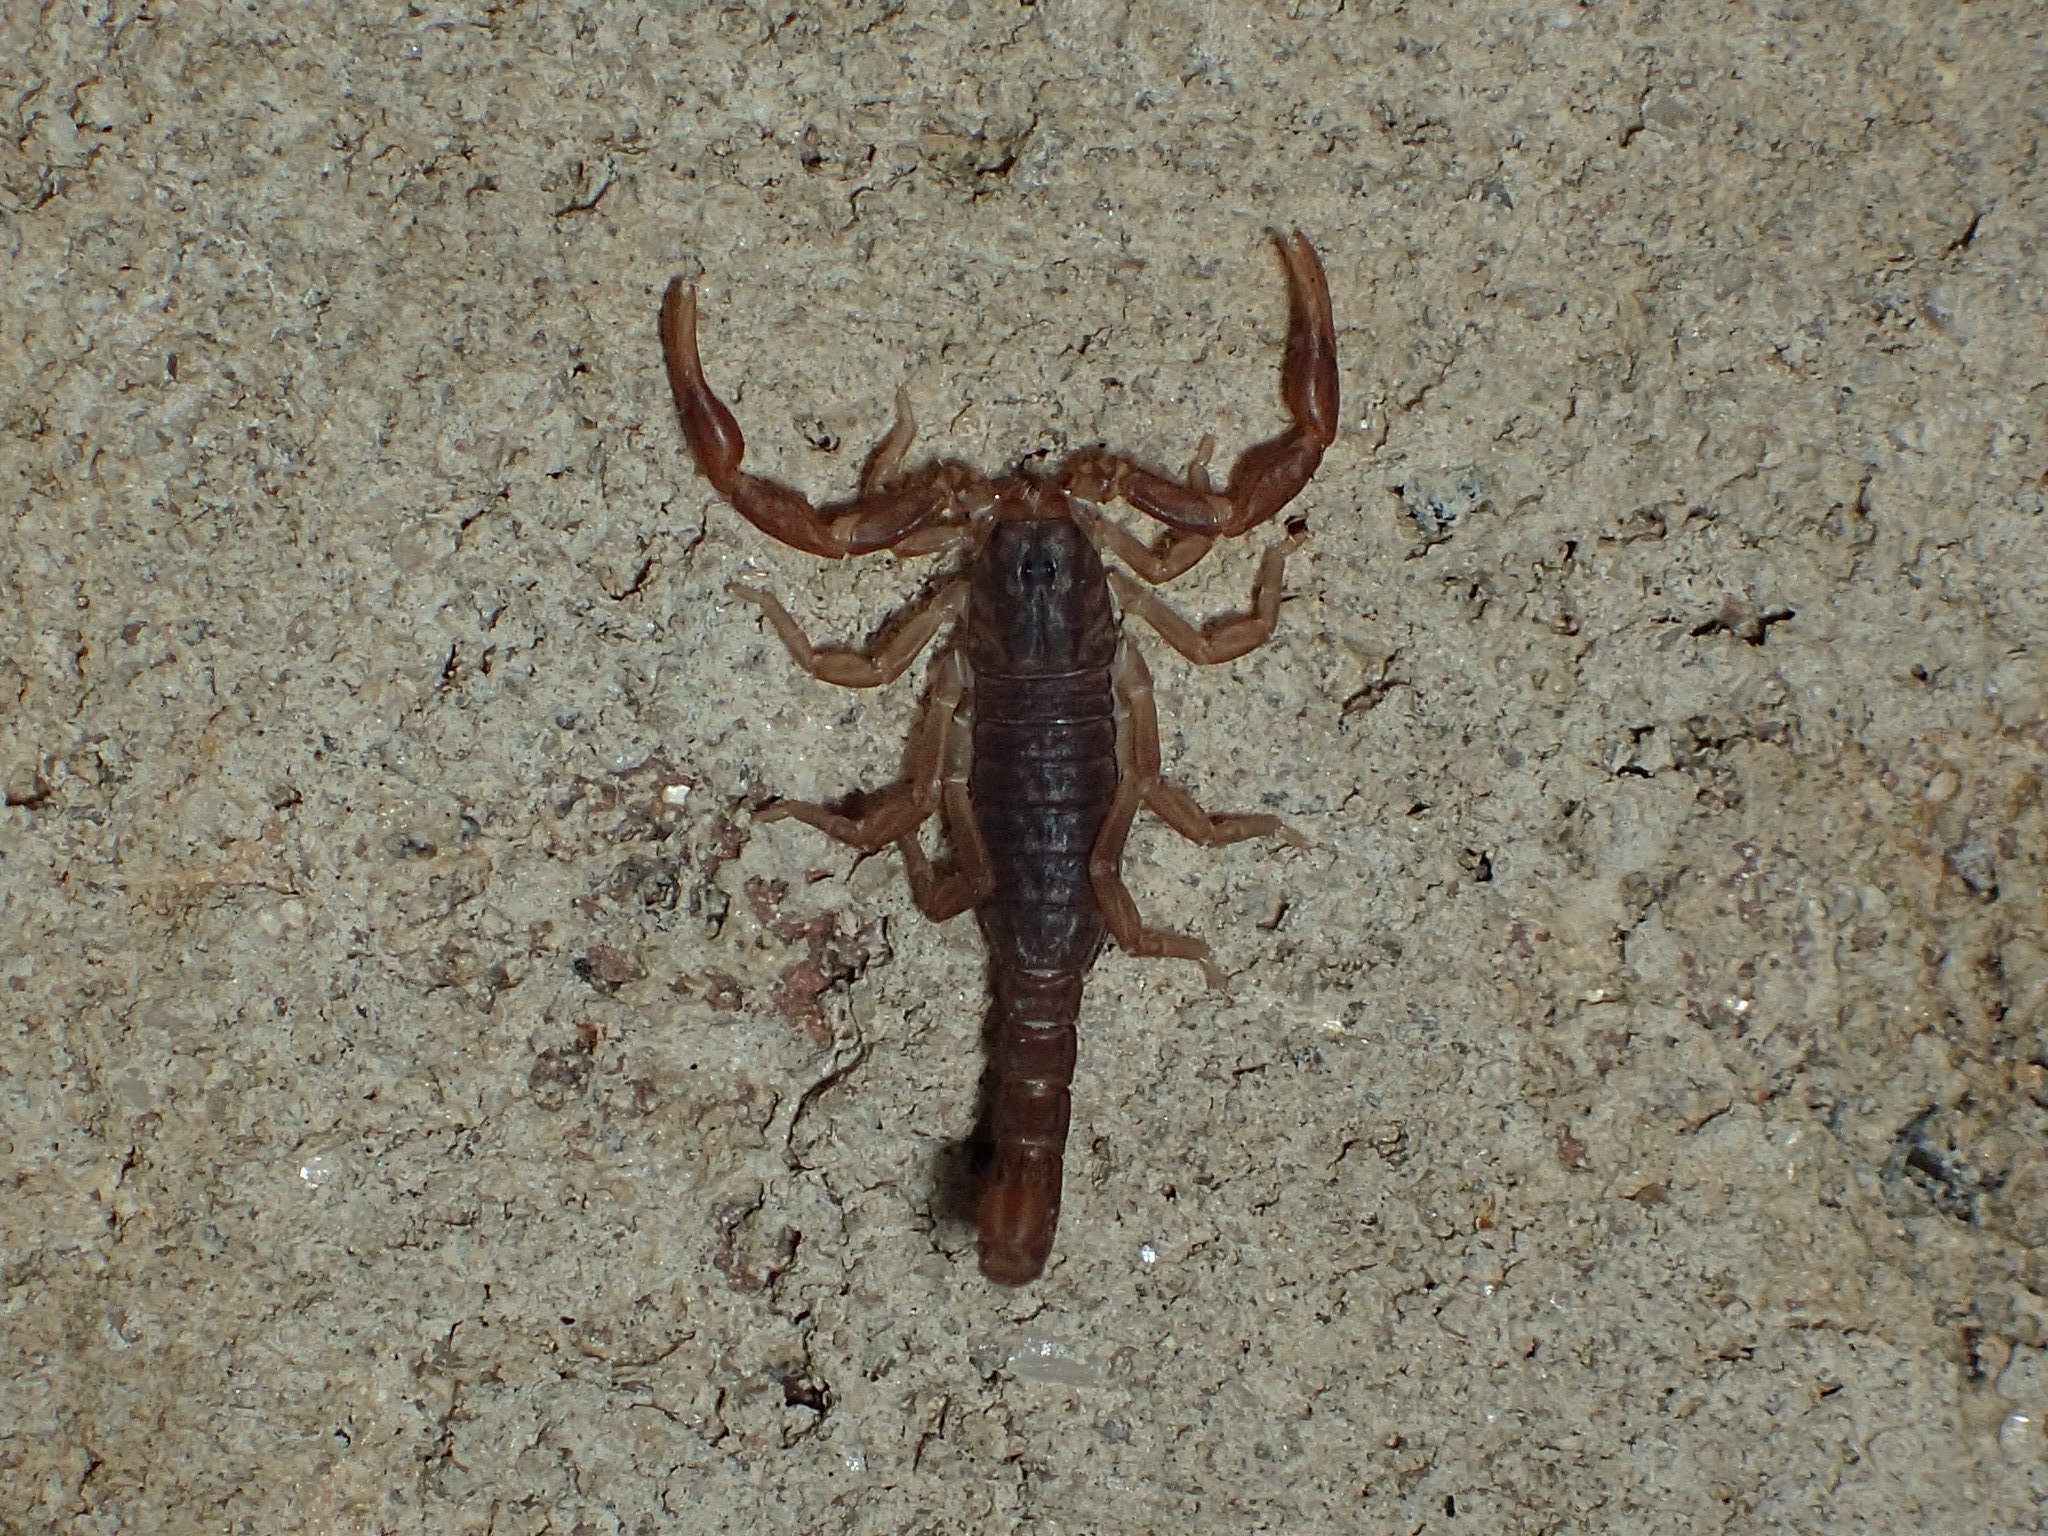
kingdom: Animalia
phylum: Arthropoda
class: Arachnida
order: Scorpiones
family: Vaejovidae
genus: Vaejovis
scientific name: Vaejovis carolinianus
